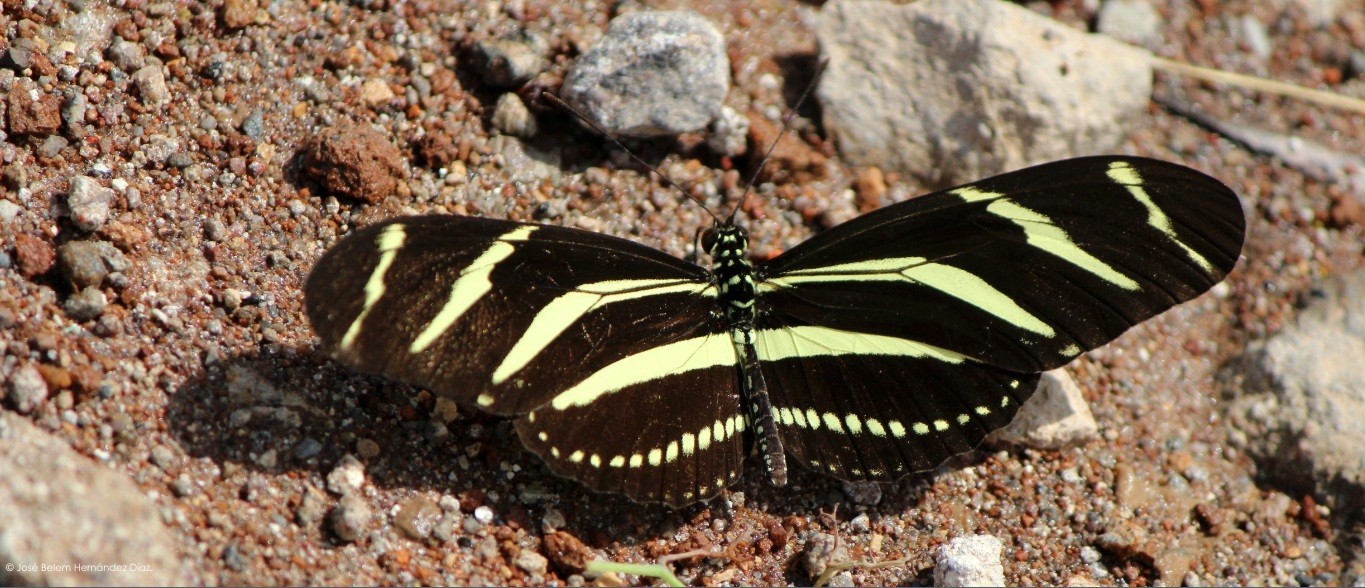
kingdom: Animalia
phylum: Arthropoda
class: Insecta
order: Lepidoptera
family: Nymphalidae
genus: Heliconius
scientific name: Heliconius charithonia
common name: Zebra long wing
